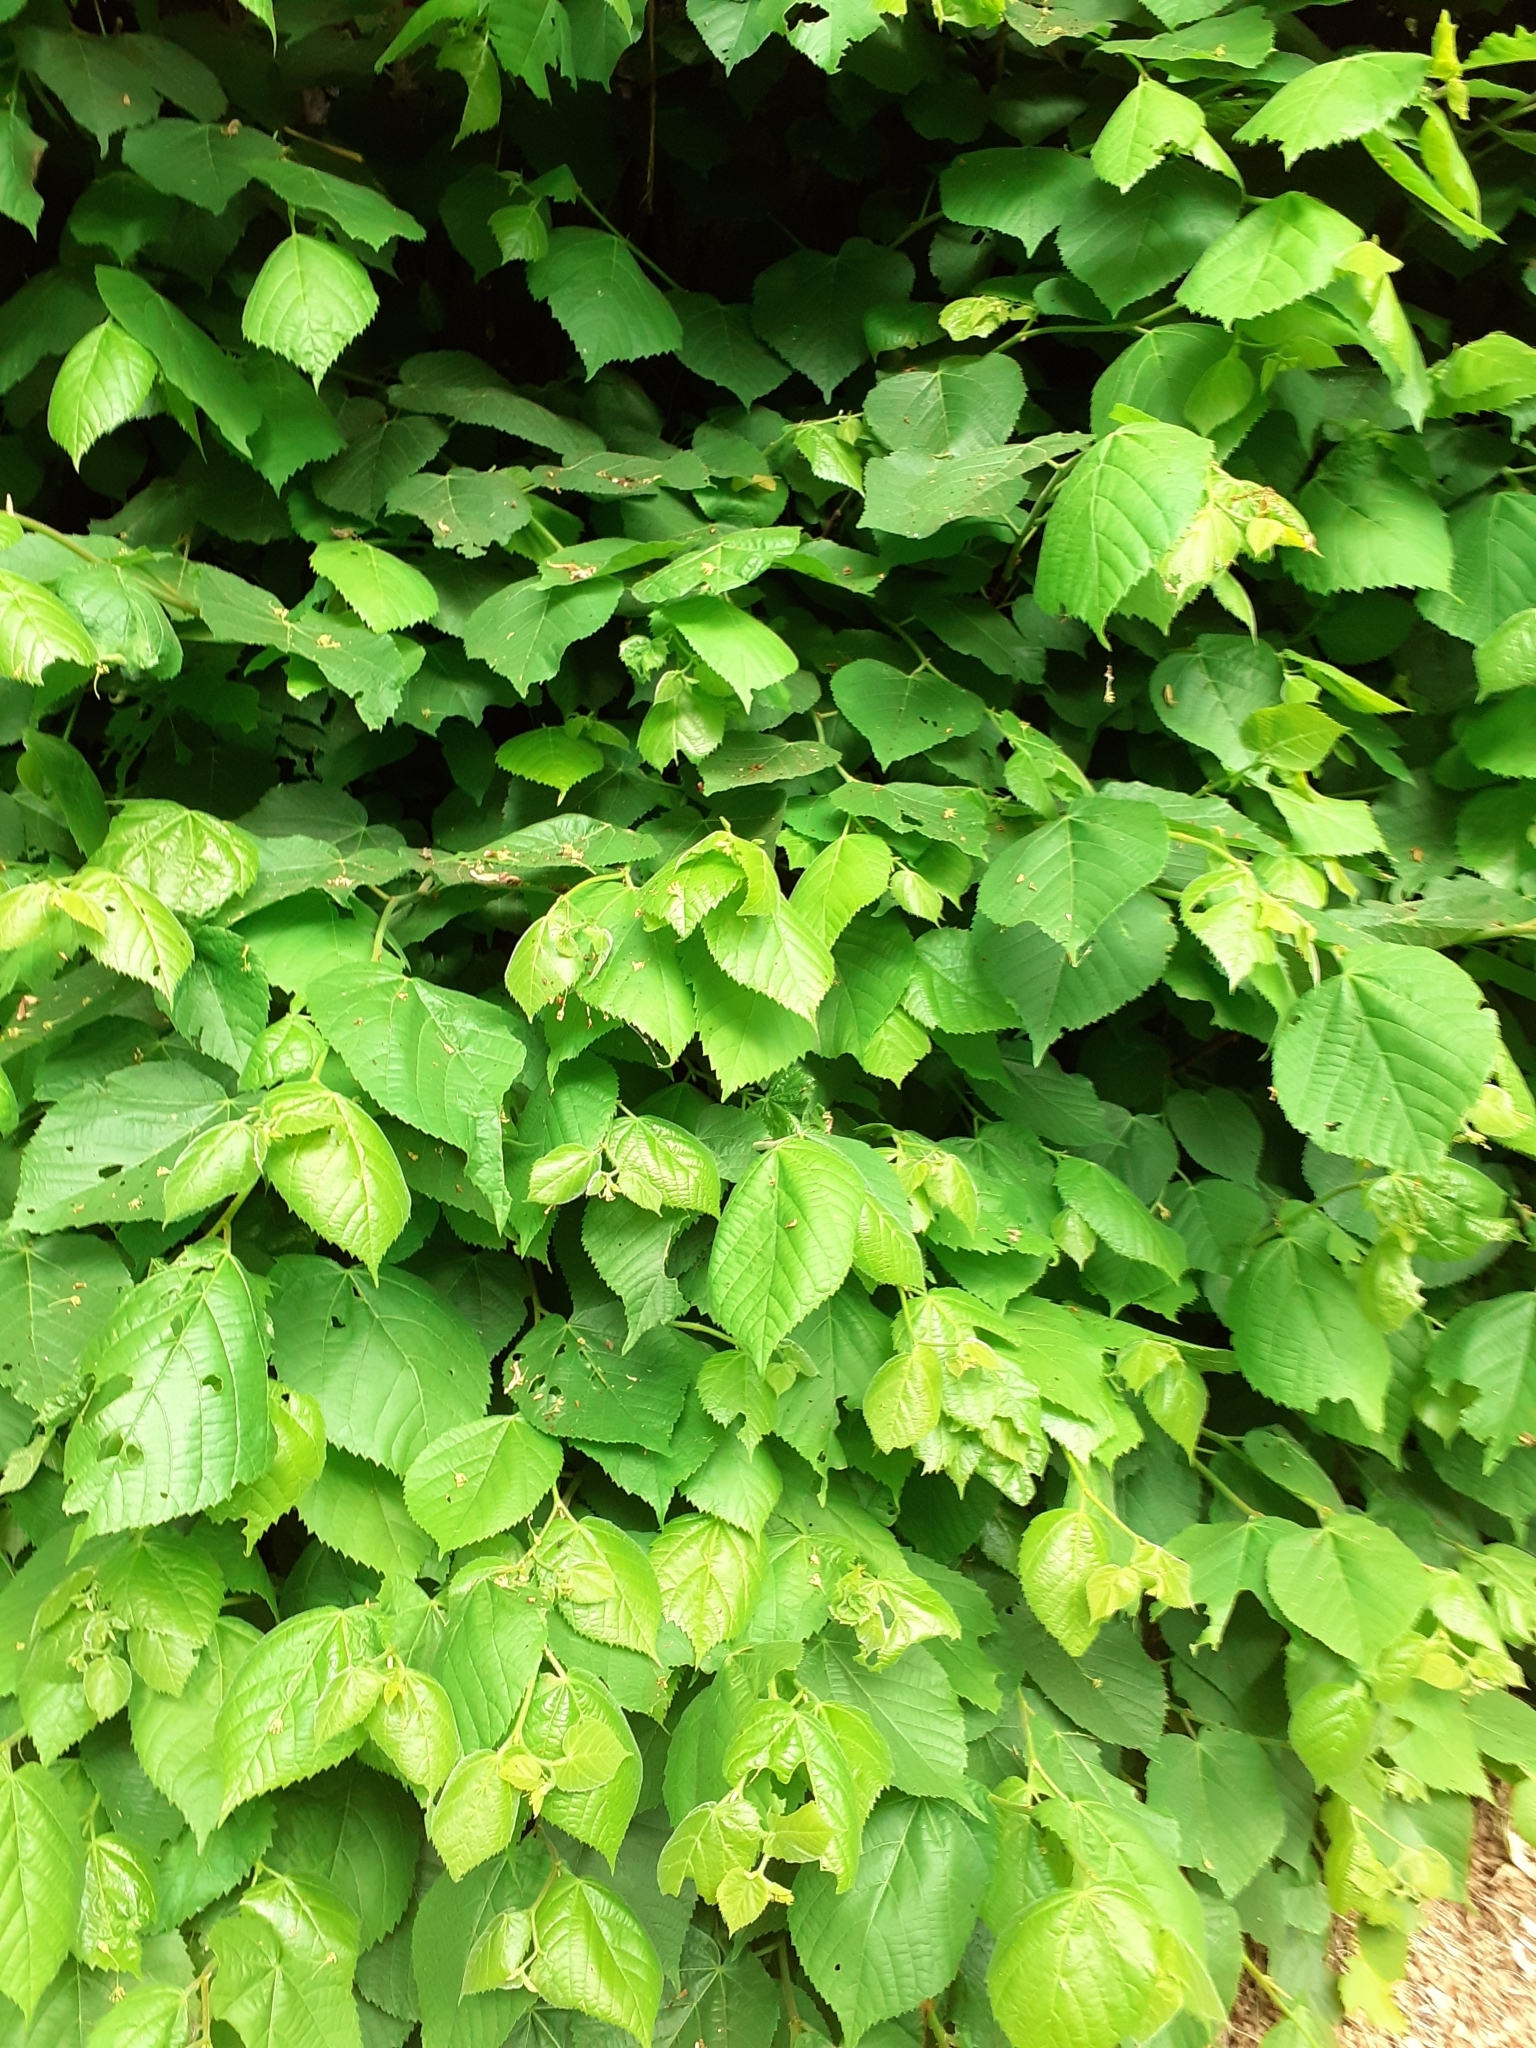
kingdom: Plantae
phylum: Tracheophyta
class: Magnoliopsida
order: Malvales
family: Malvaceae
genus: Tilia
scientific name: Tilia platyphyllos
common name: Large-leaved lime
